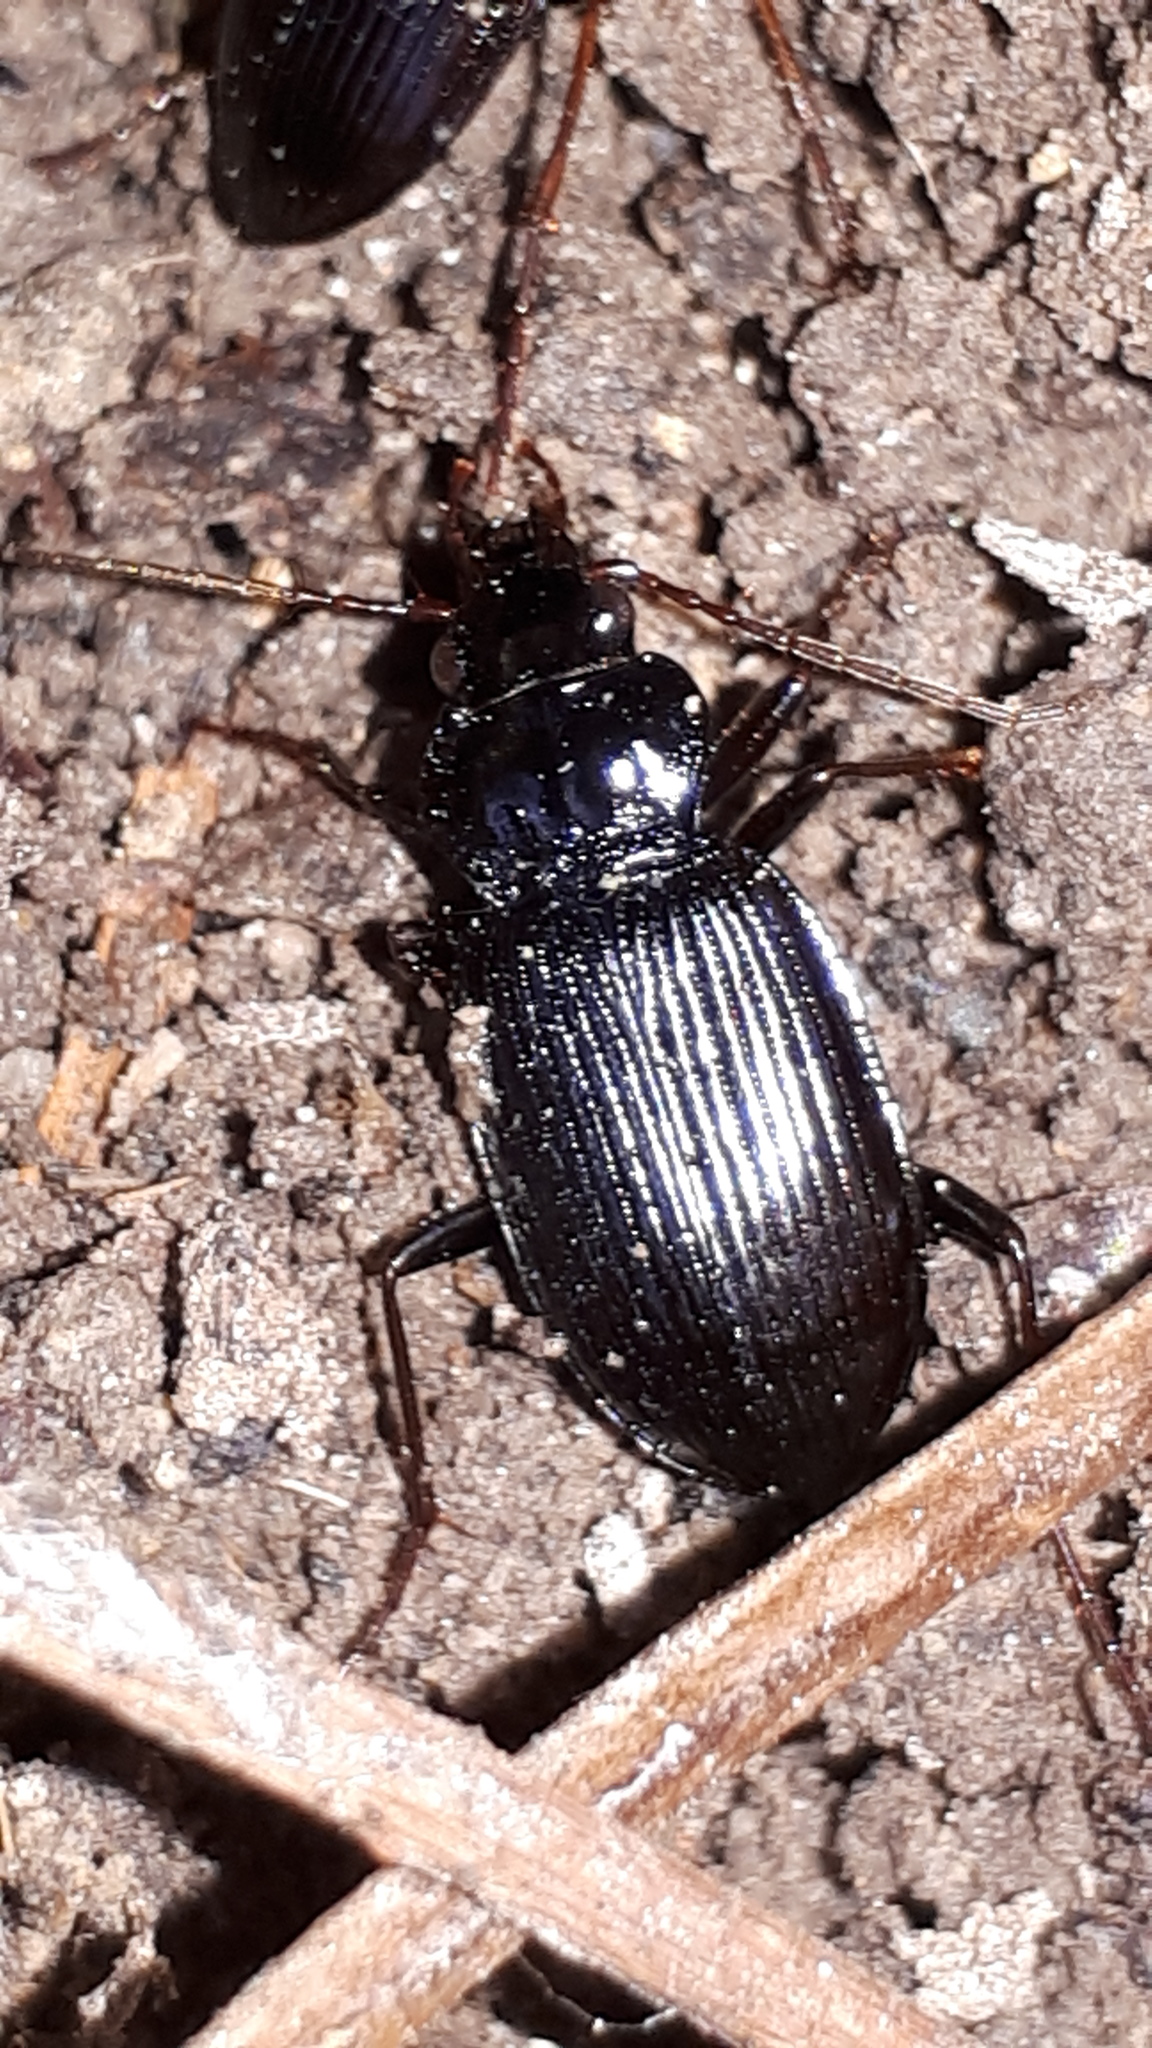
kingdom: Animalia
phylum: Arthropoda
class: Insecta
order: Coleoptera
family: Carabidae
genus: Nebria
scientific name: Nebria brevicollis
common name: Short-necked gazelle beetle
